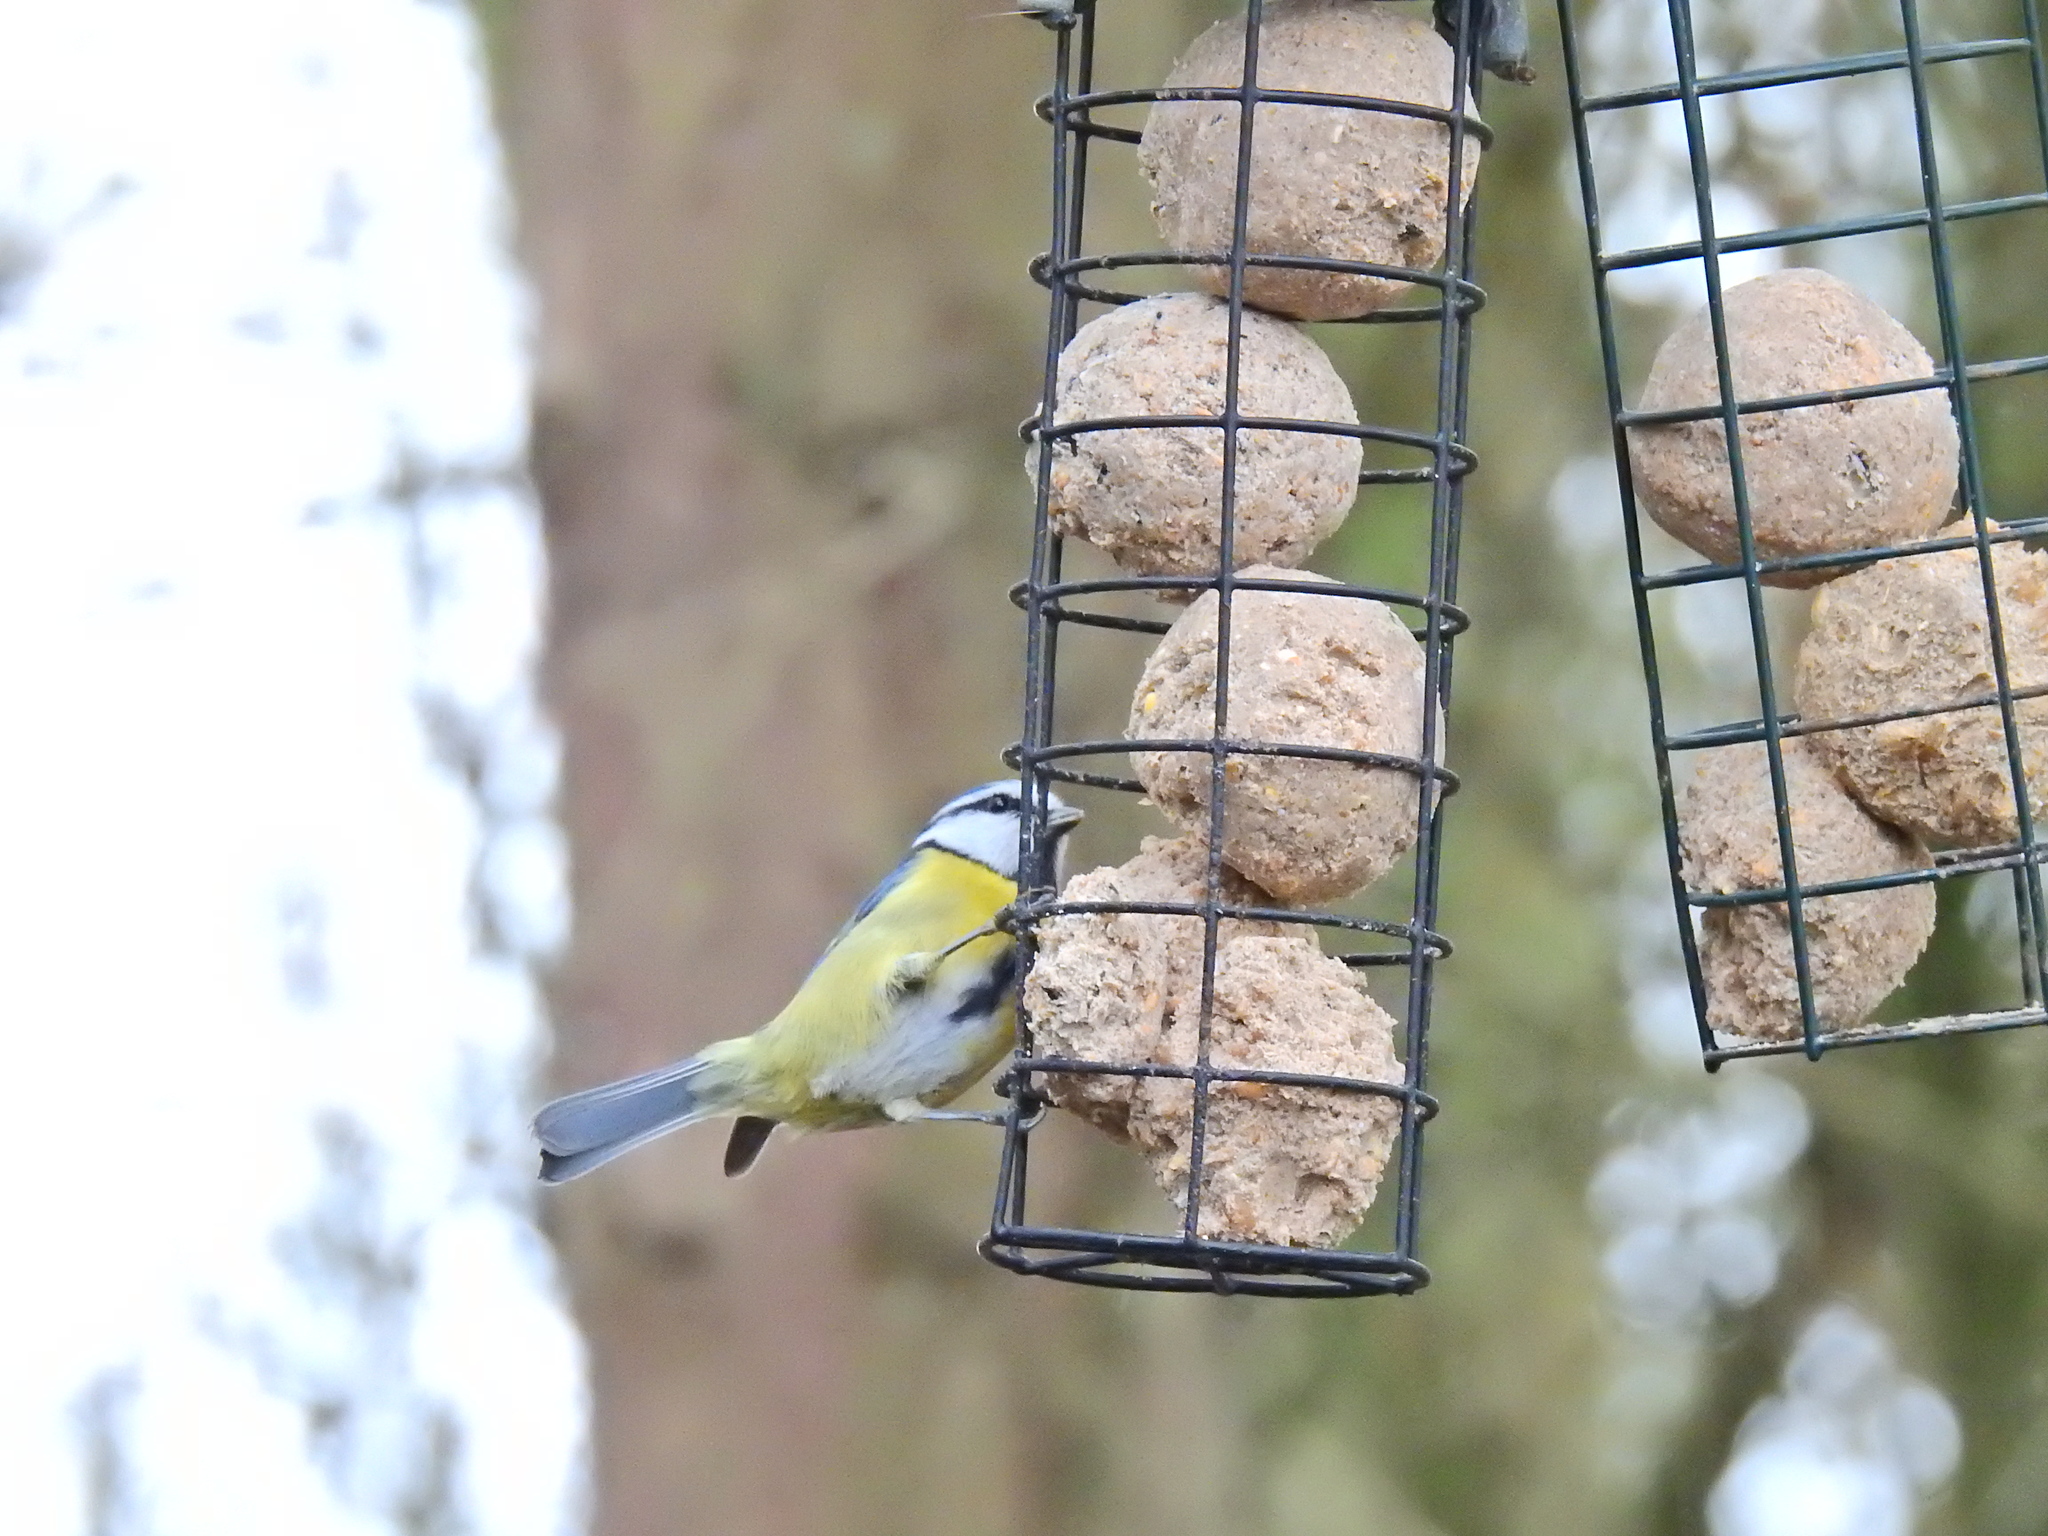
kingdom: Animalia
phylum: Chordata
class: Aves
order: Passeriformes
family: Paridae
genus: Cyanistes
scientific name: Cyanistes caeruleus
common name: Eurasian blue tit
